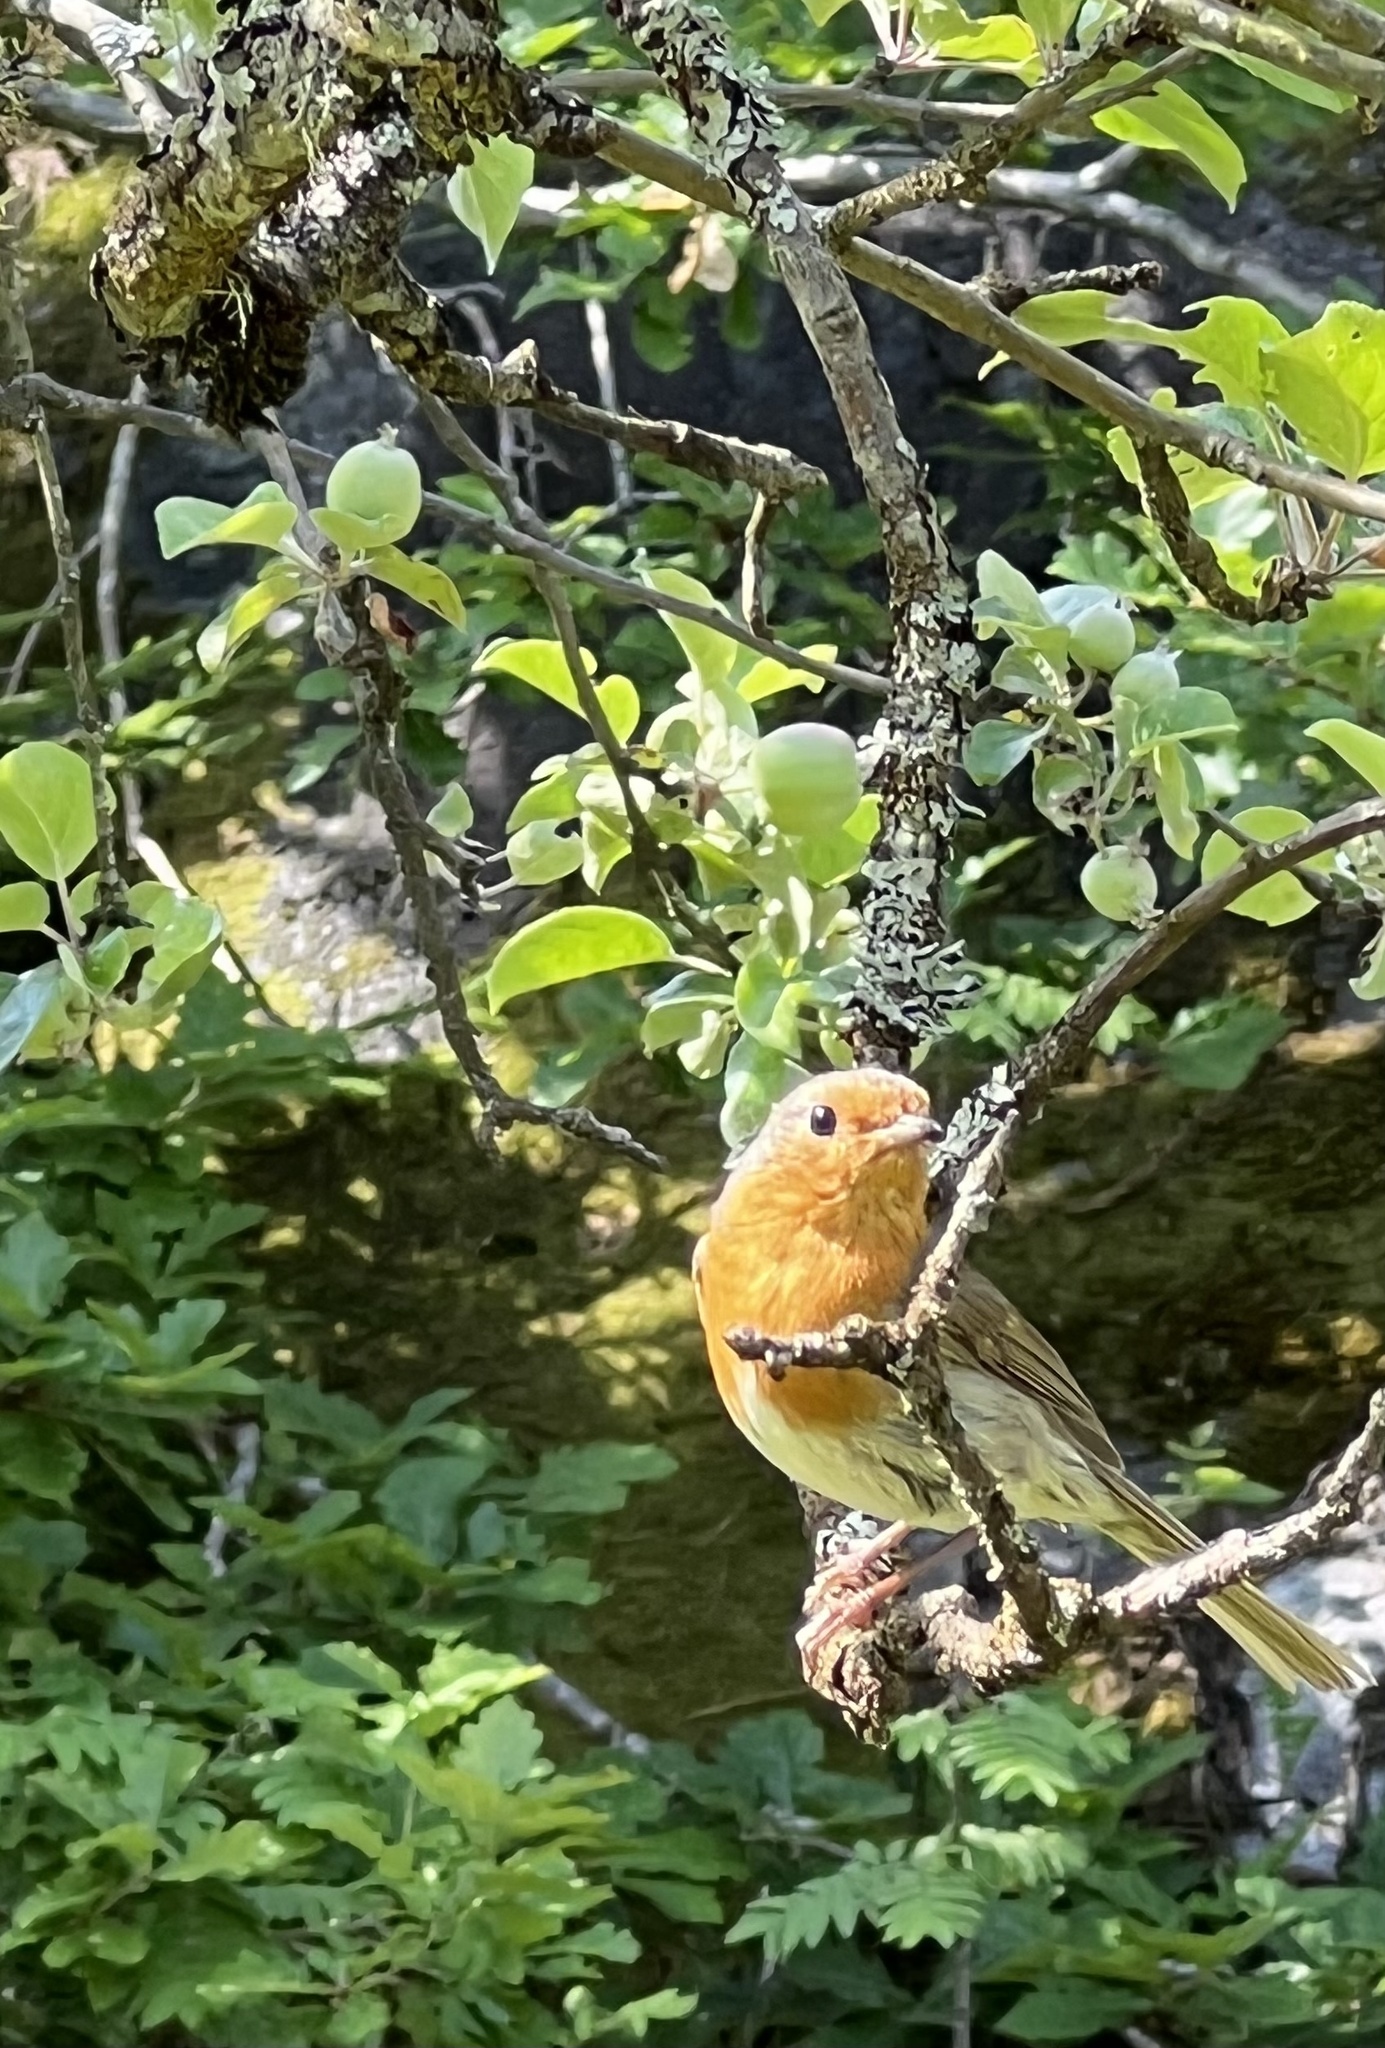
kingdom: Animalia
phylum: Chordata
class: Aves
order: Passeriformes
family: Muscicapidae
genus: Erithacus
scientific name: Erithacus rubecula
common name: European robin
